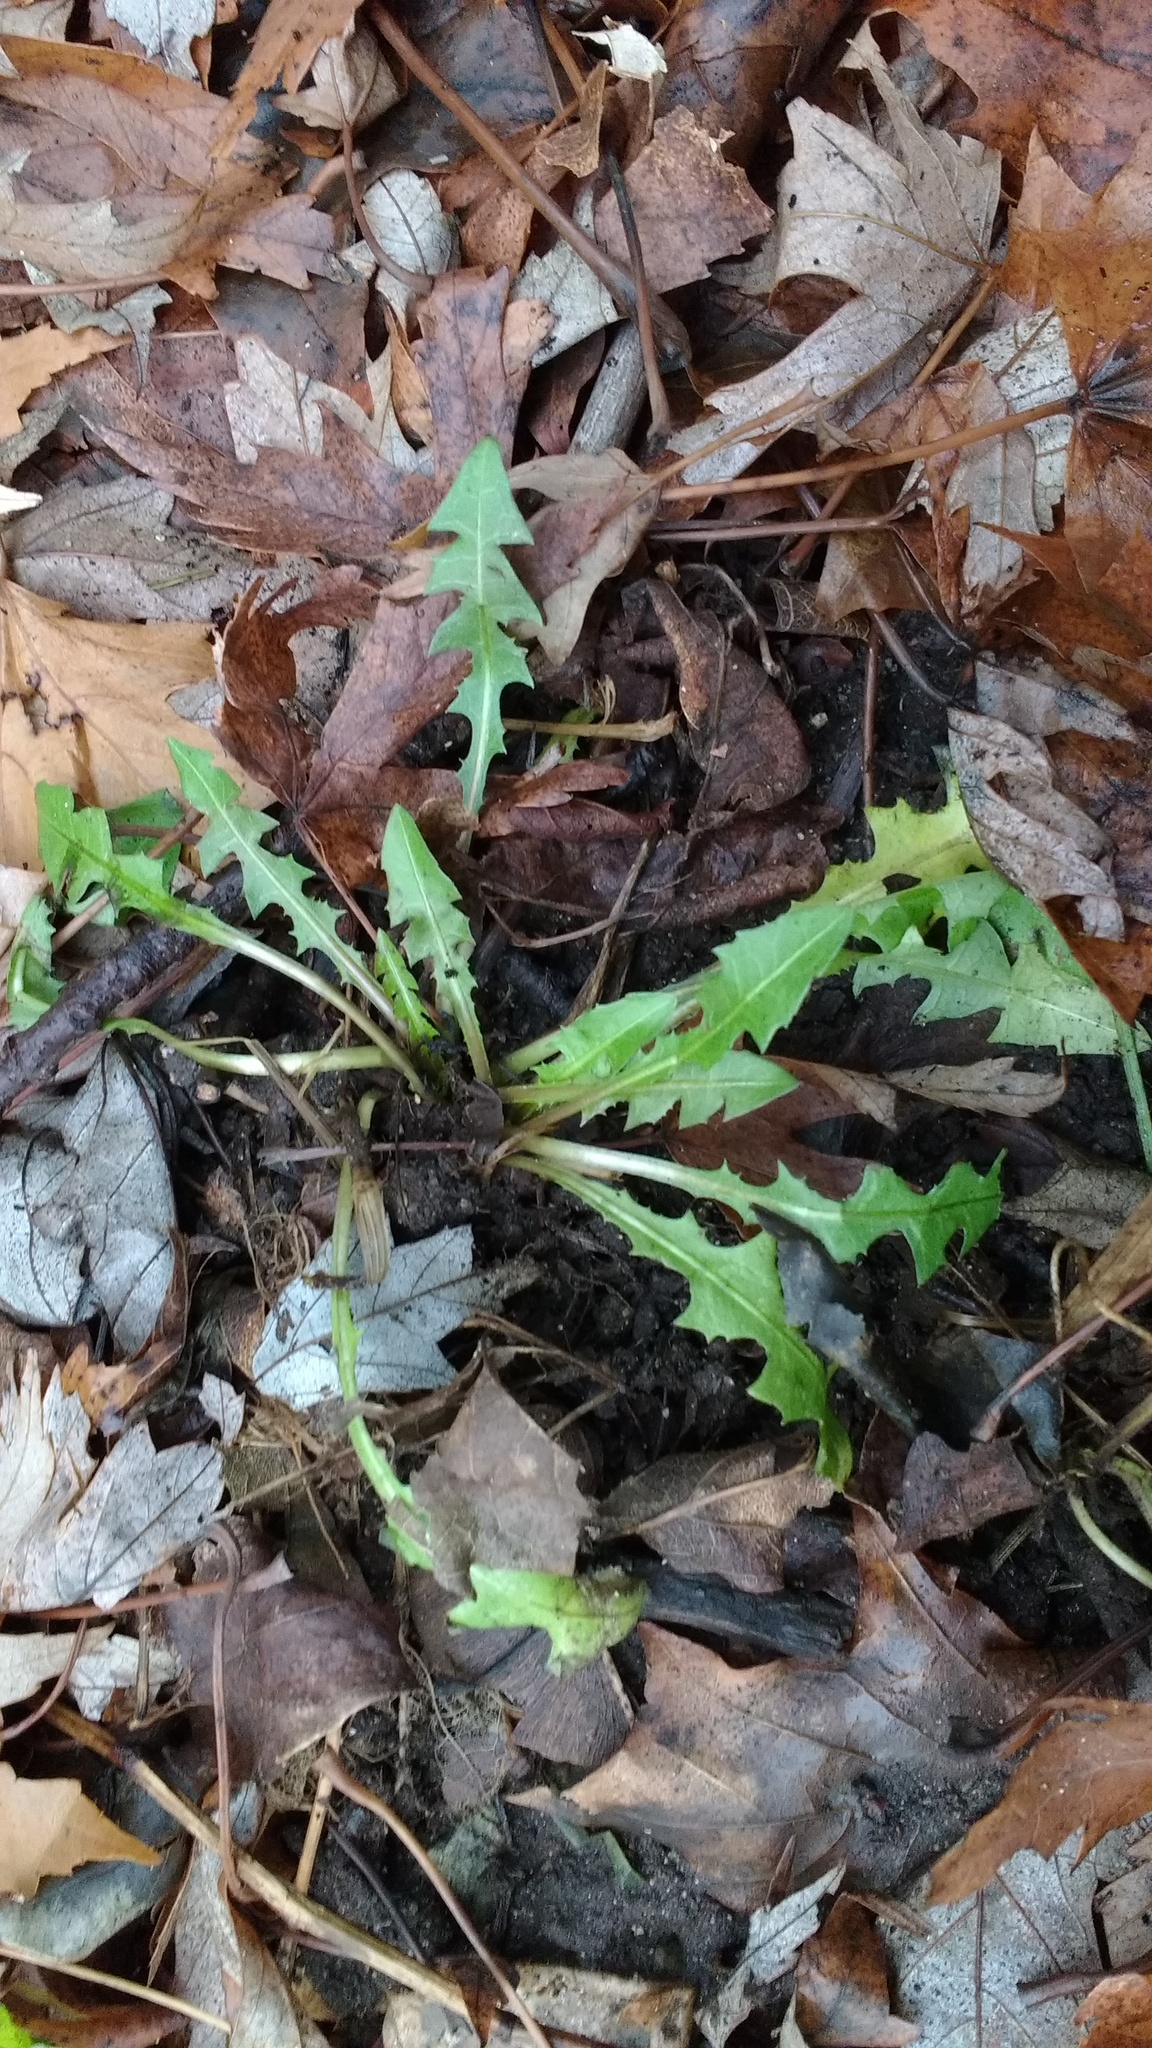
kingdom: Plantae
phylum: Tracheophyta
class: Magnoliopsida
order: Asterales
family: Asteraceae
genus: Taraxacum
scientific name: Taraxacum officinale
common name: Common dandelion
